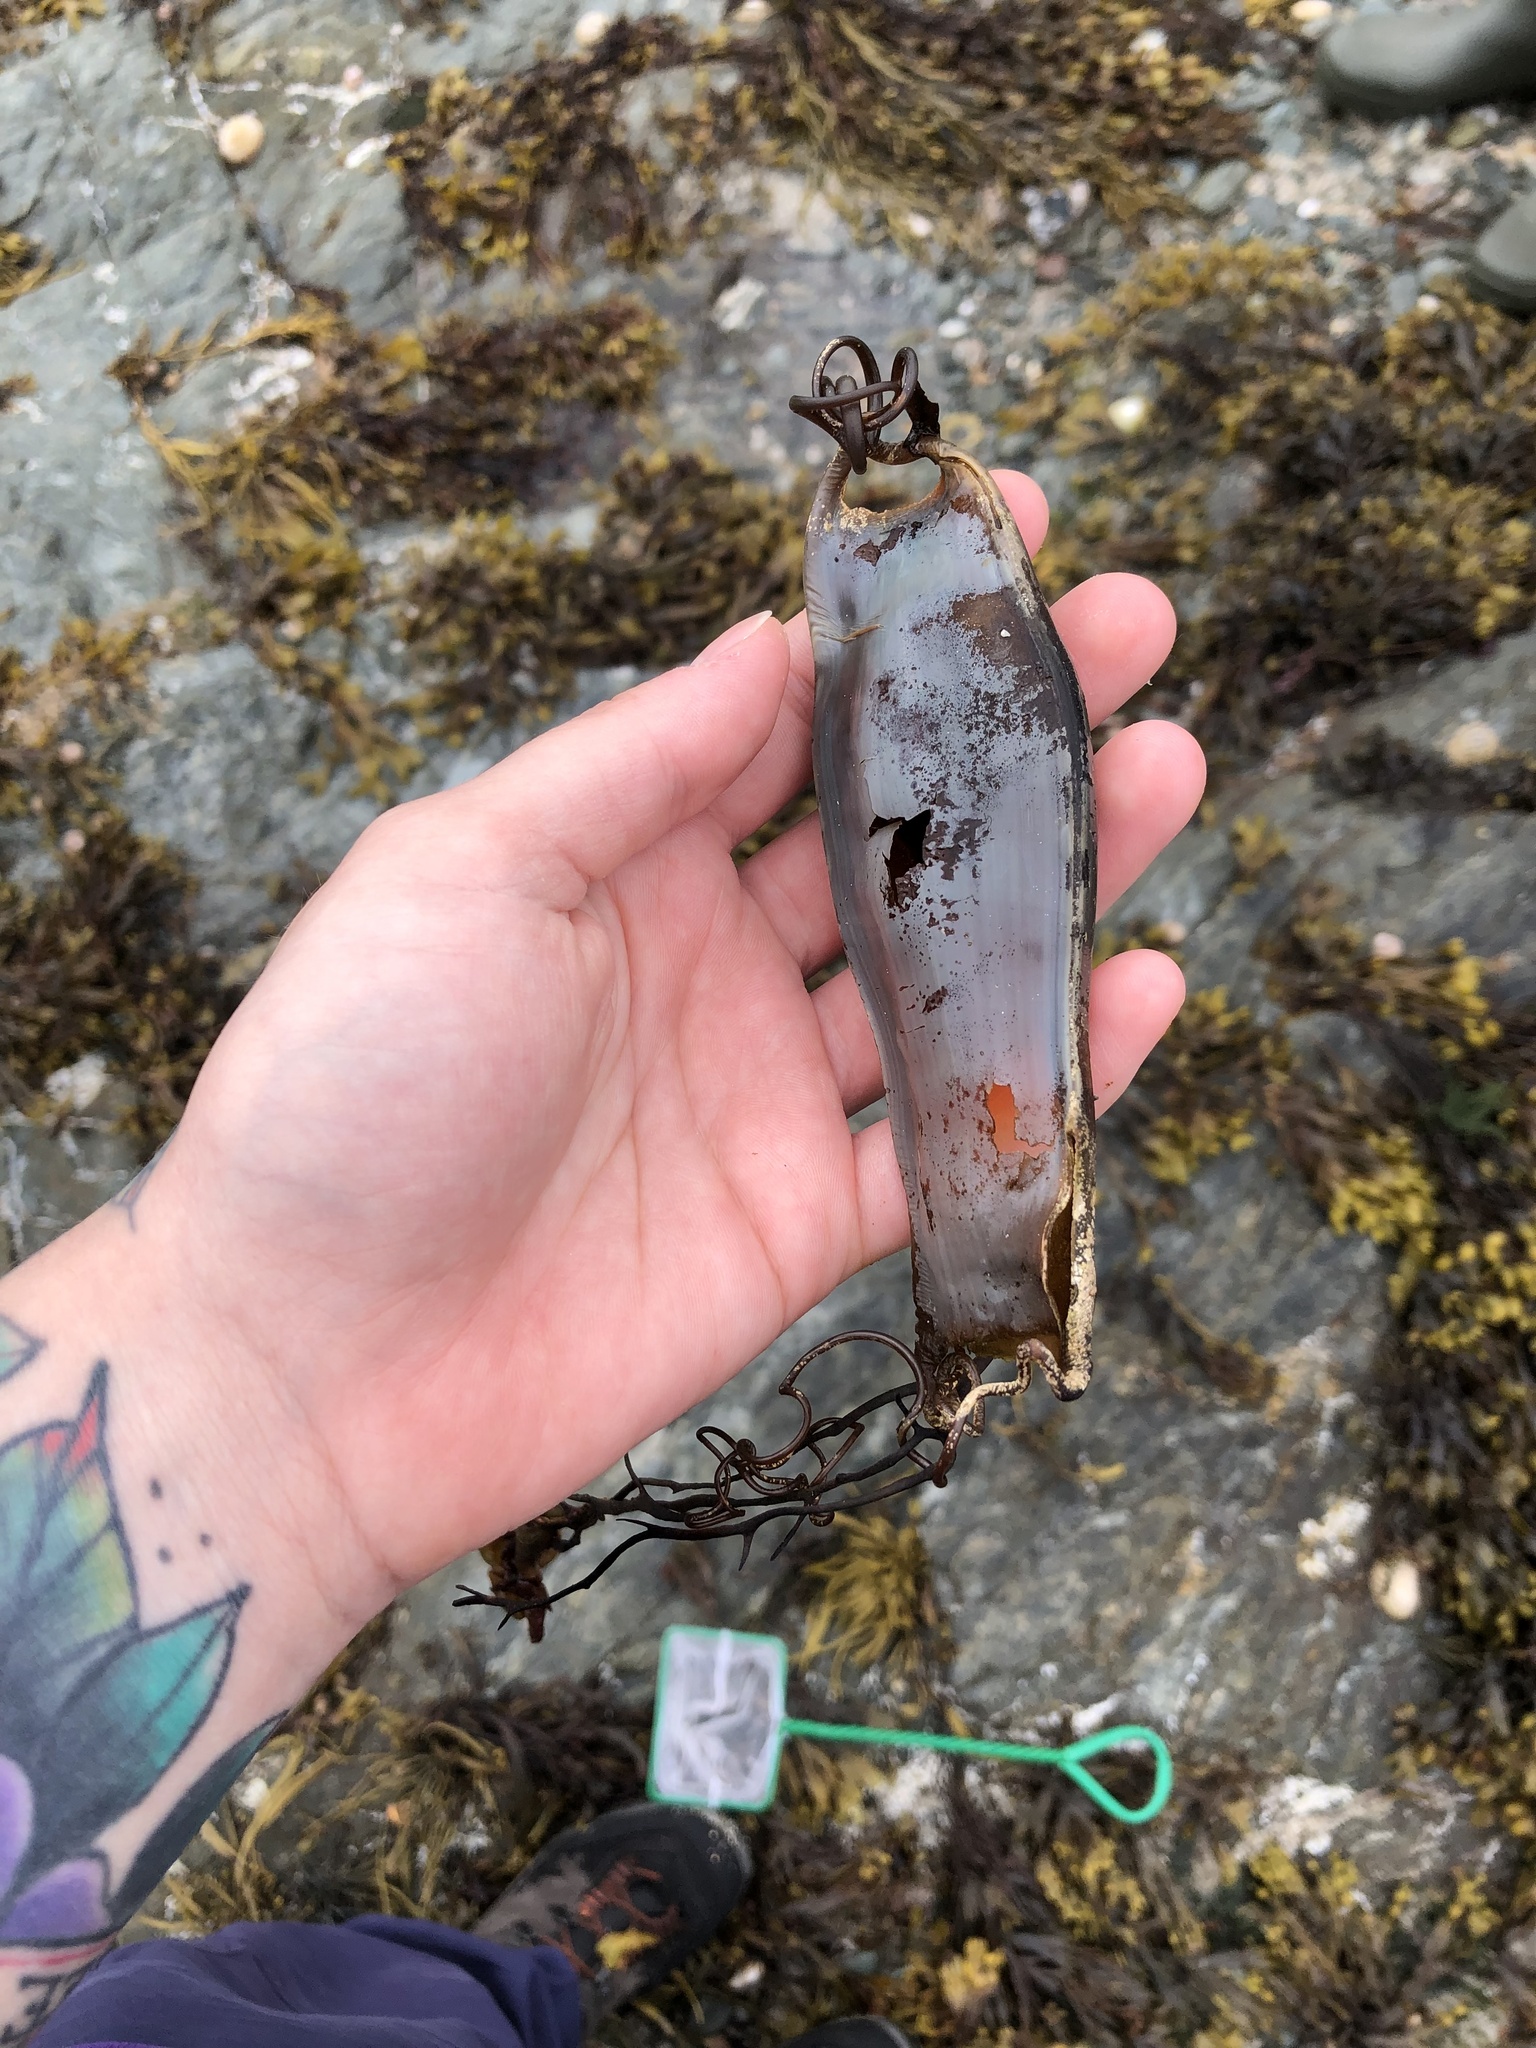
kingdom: Animalia
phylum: Chordata
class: Elasmobranchii
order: Carcharhiniformes
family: Scyliorhinidae
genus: Scyliorhinus
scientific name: Scyliorhinus stellaris
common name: Nursehound
